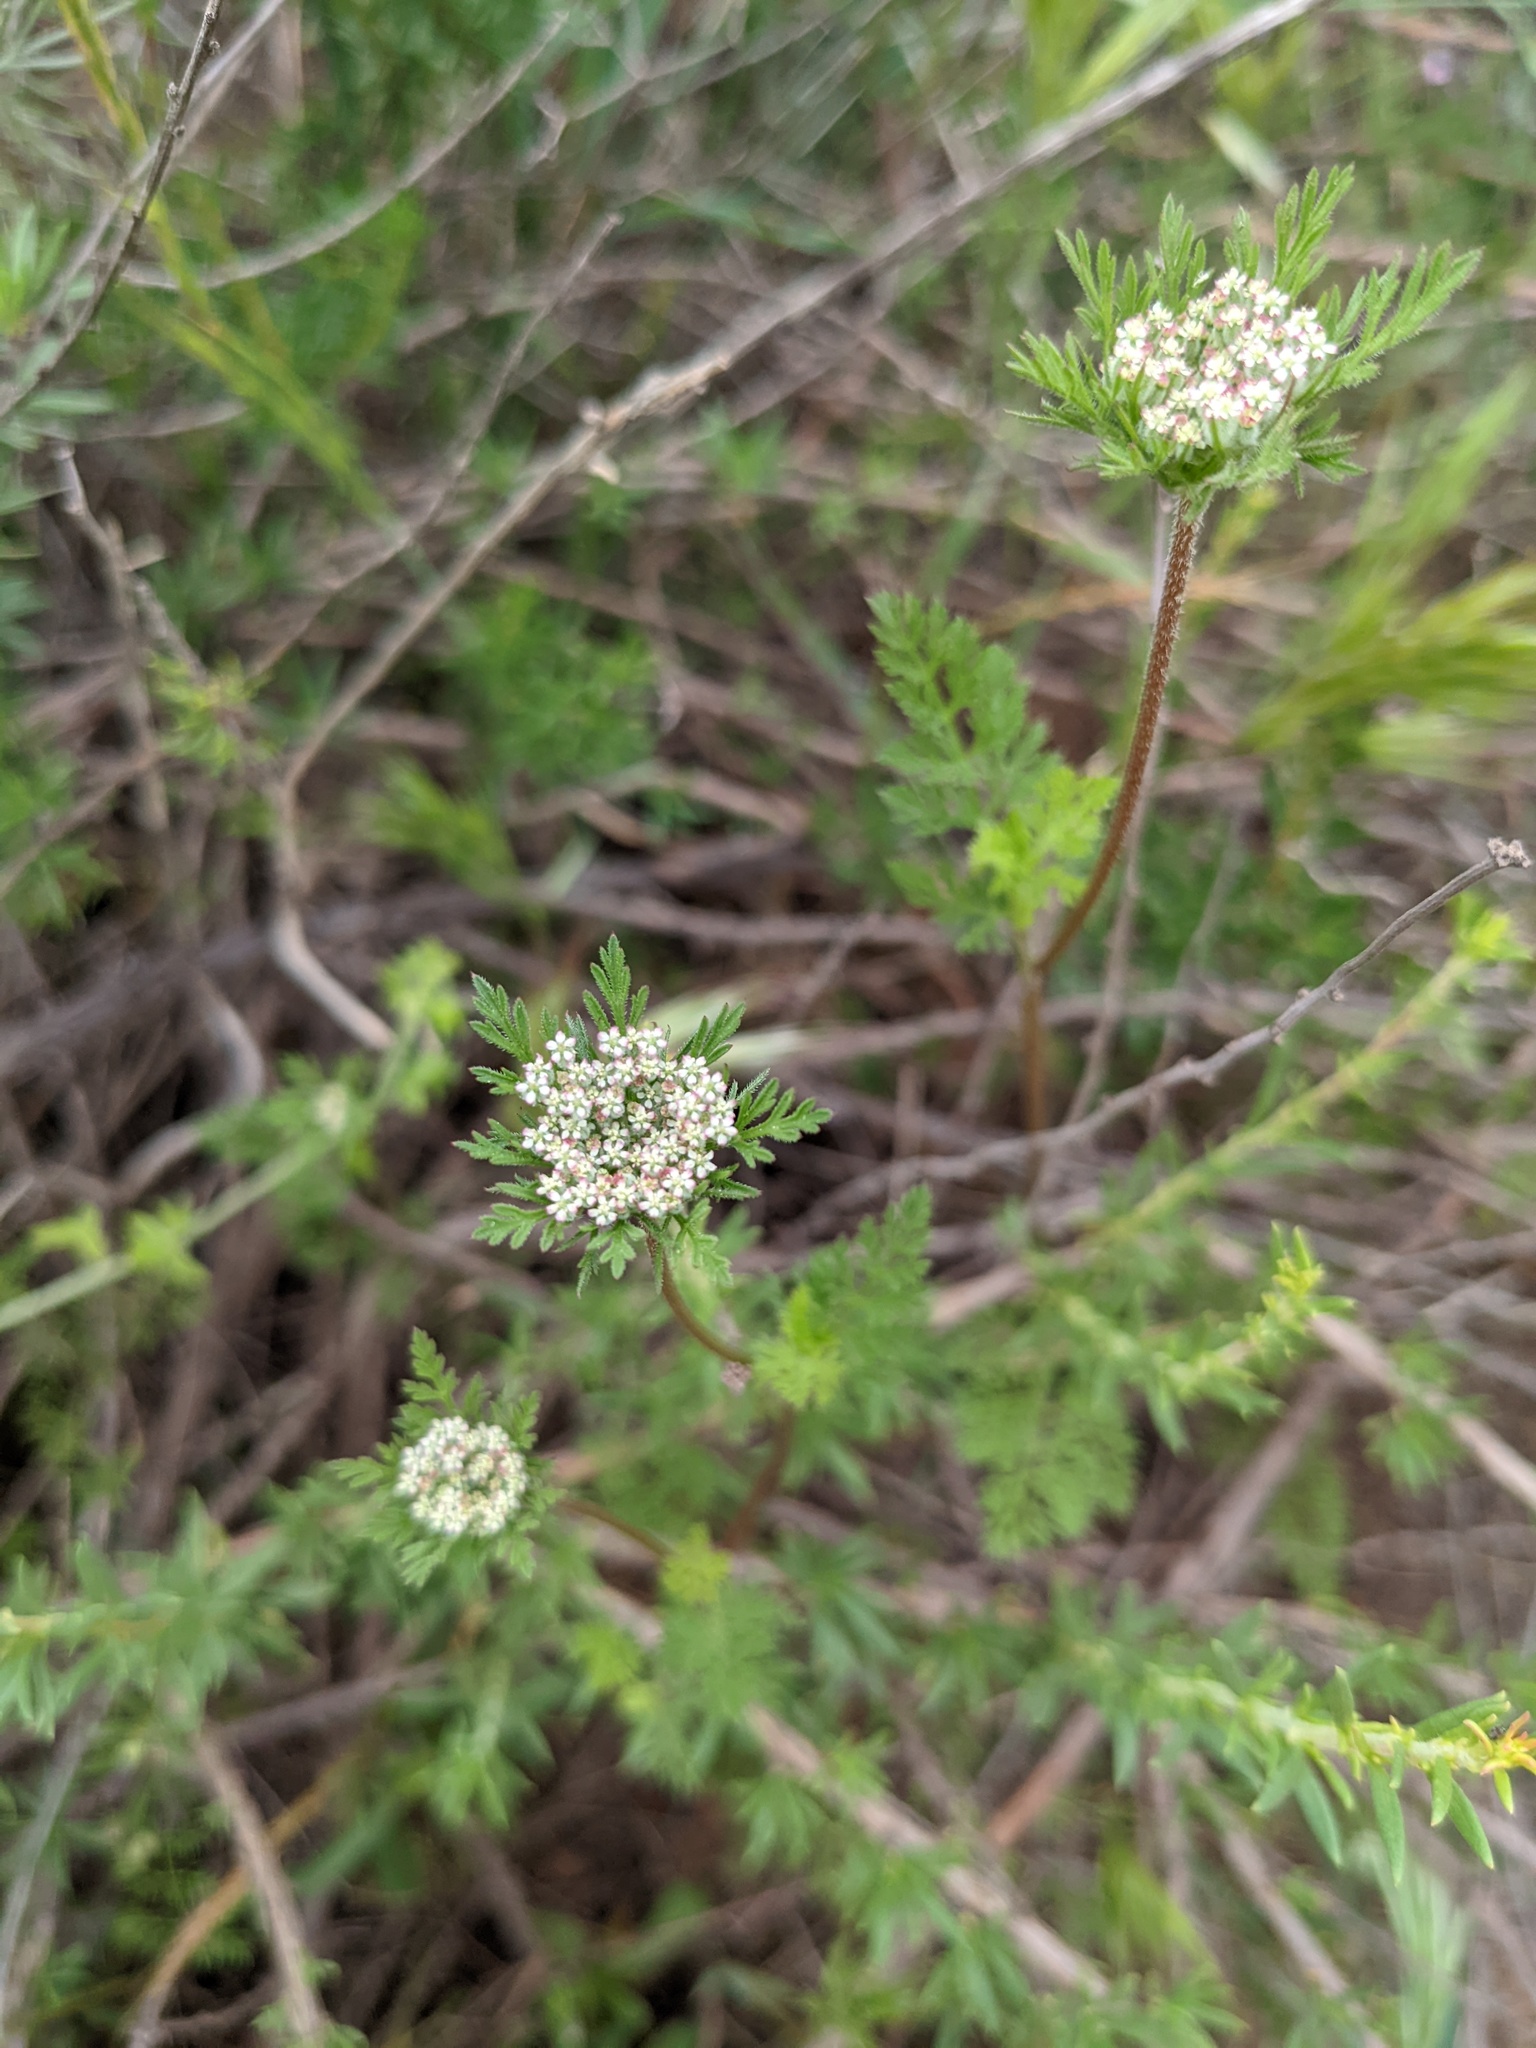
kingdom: Plantae
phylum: Tracheophyta
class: Magnoliopsida
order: Apiales
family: Apiaceae
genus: Daucus
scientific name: Daucus pusillus
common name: Southwest wild carrot
